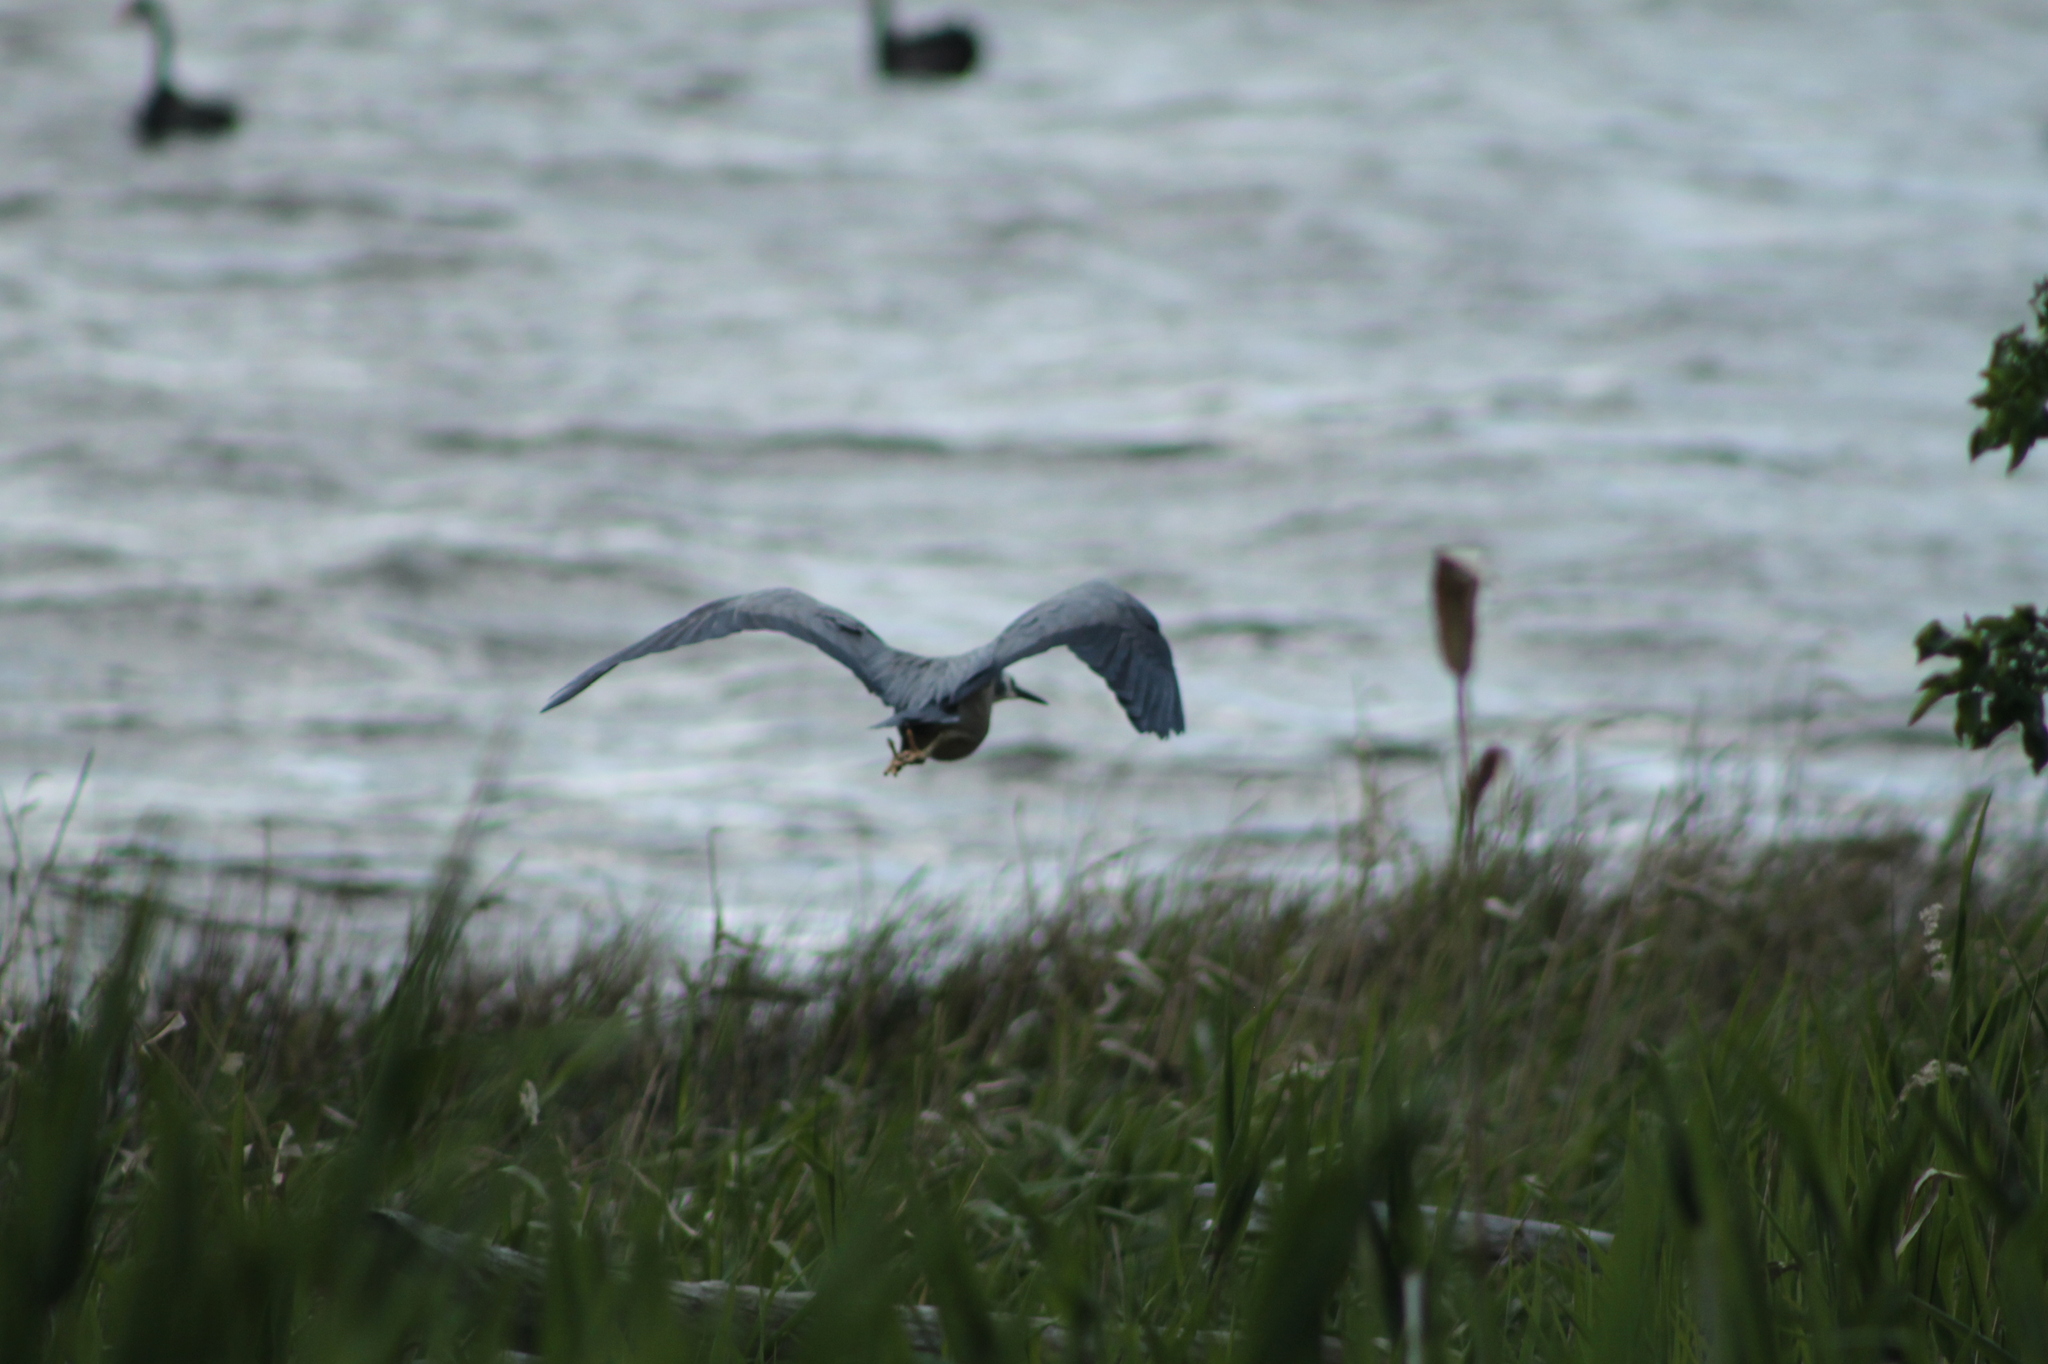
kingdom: Animalia
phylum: Chordata
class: Aves
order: Pelecaniformes
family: Ardeidae
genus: Egretta
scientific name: Egretta novaehollandiae
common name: White-faced heron
